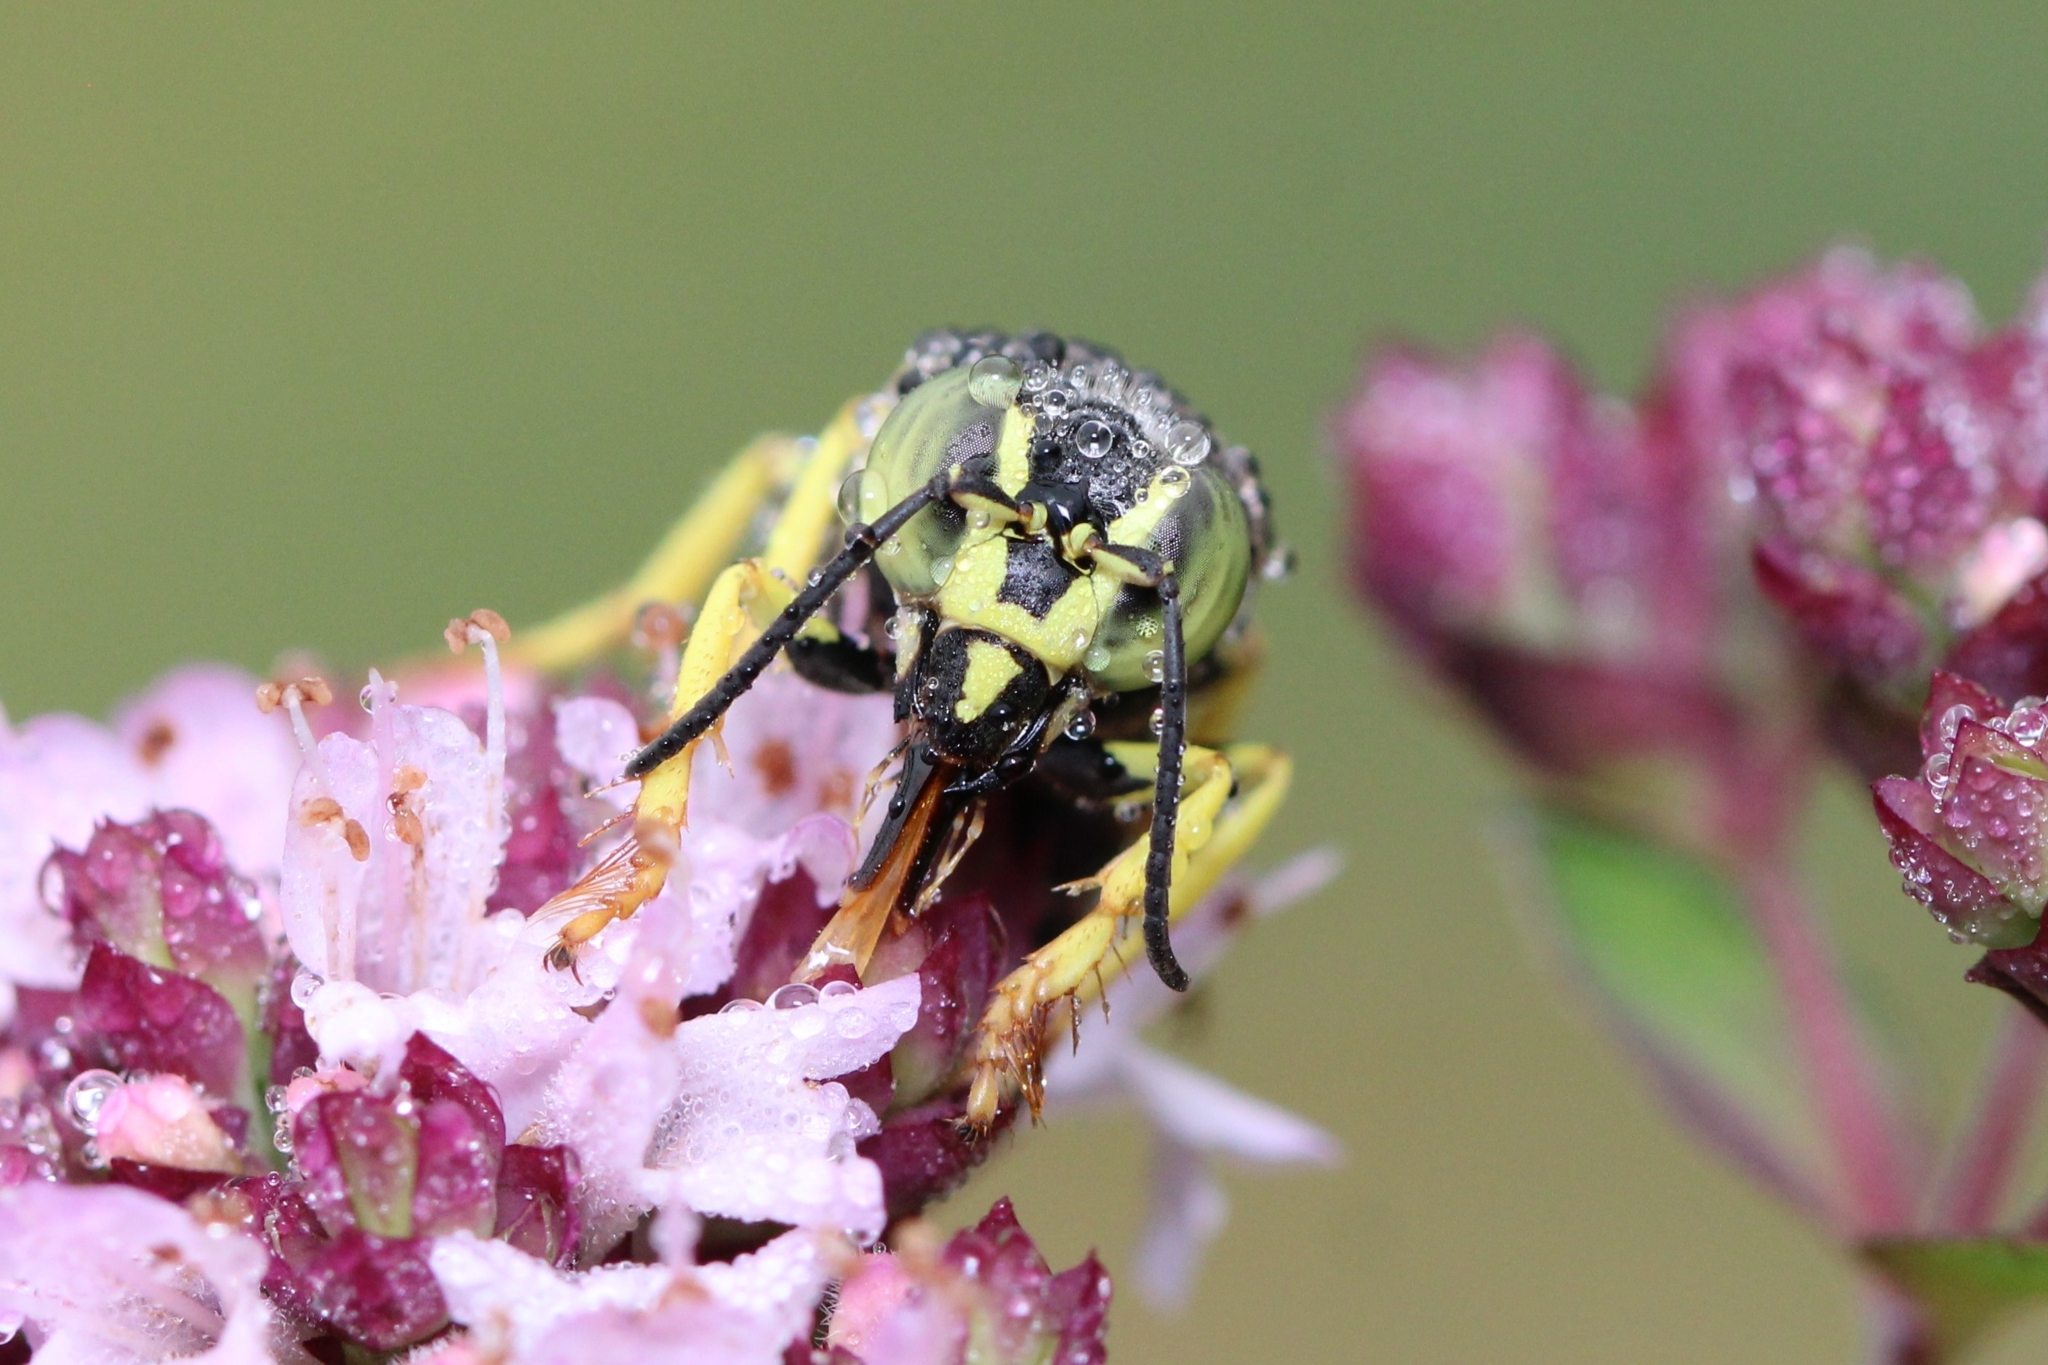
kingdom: Animalia
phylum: Arthropoda
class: Insecta
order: Hymenoptera
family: Crabronidae
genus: Bicyrtes
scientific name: Bicyrtes quadrifasciatus
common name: Four-banded stink bug hunter wasp
